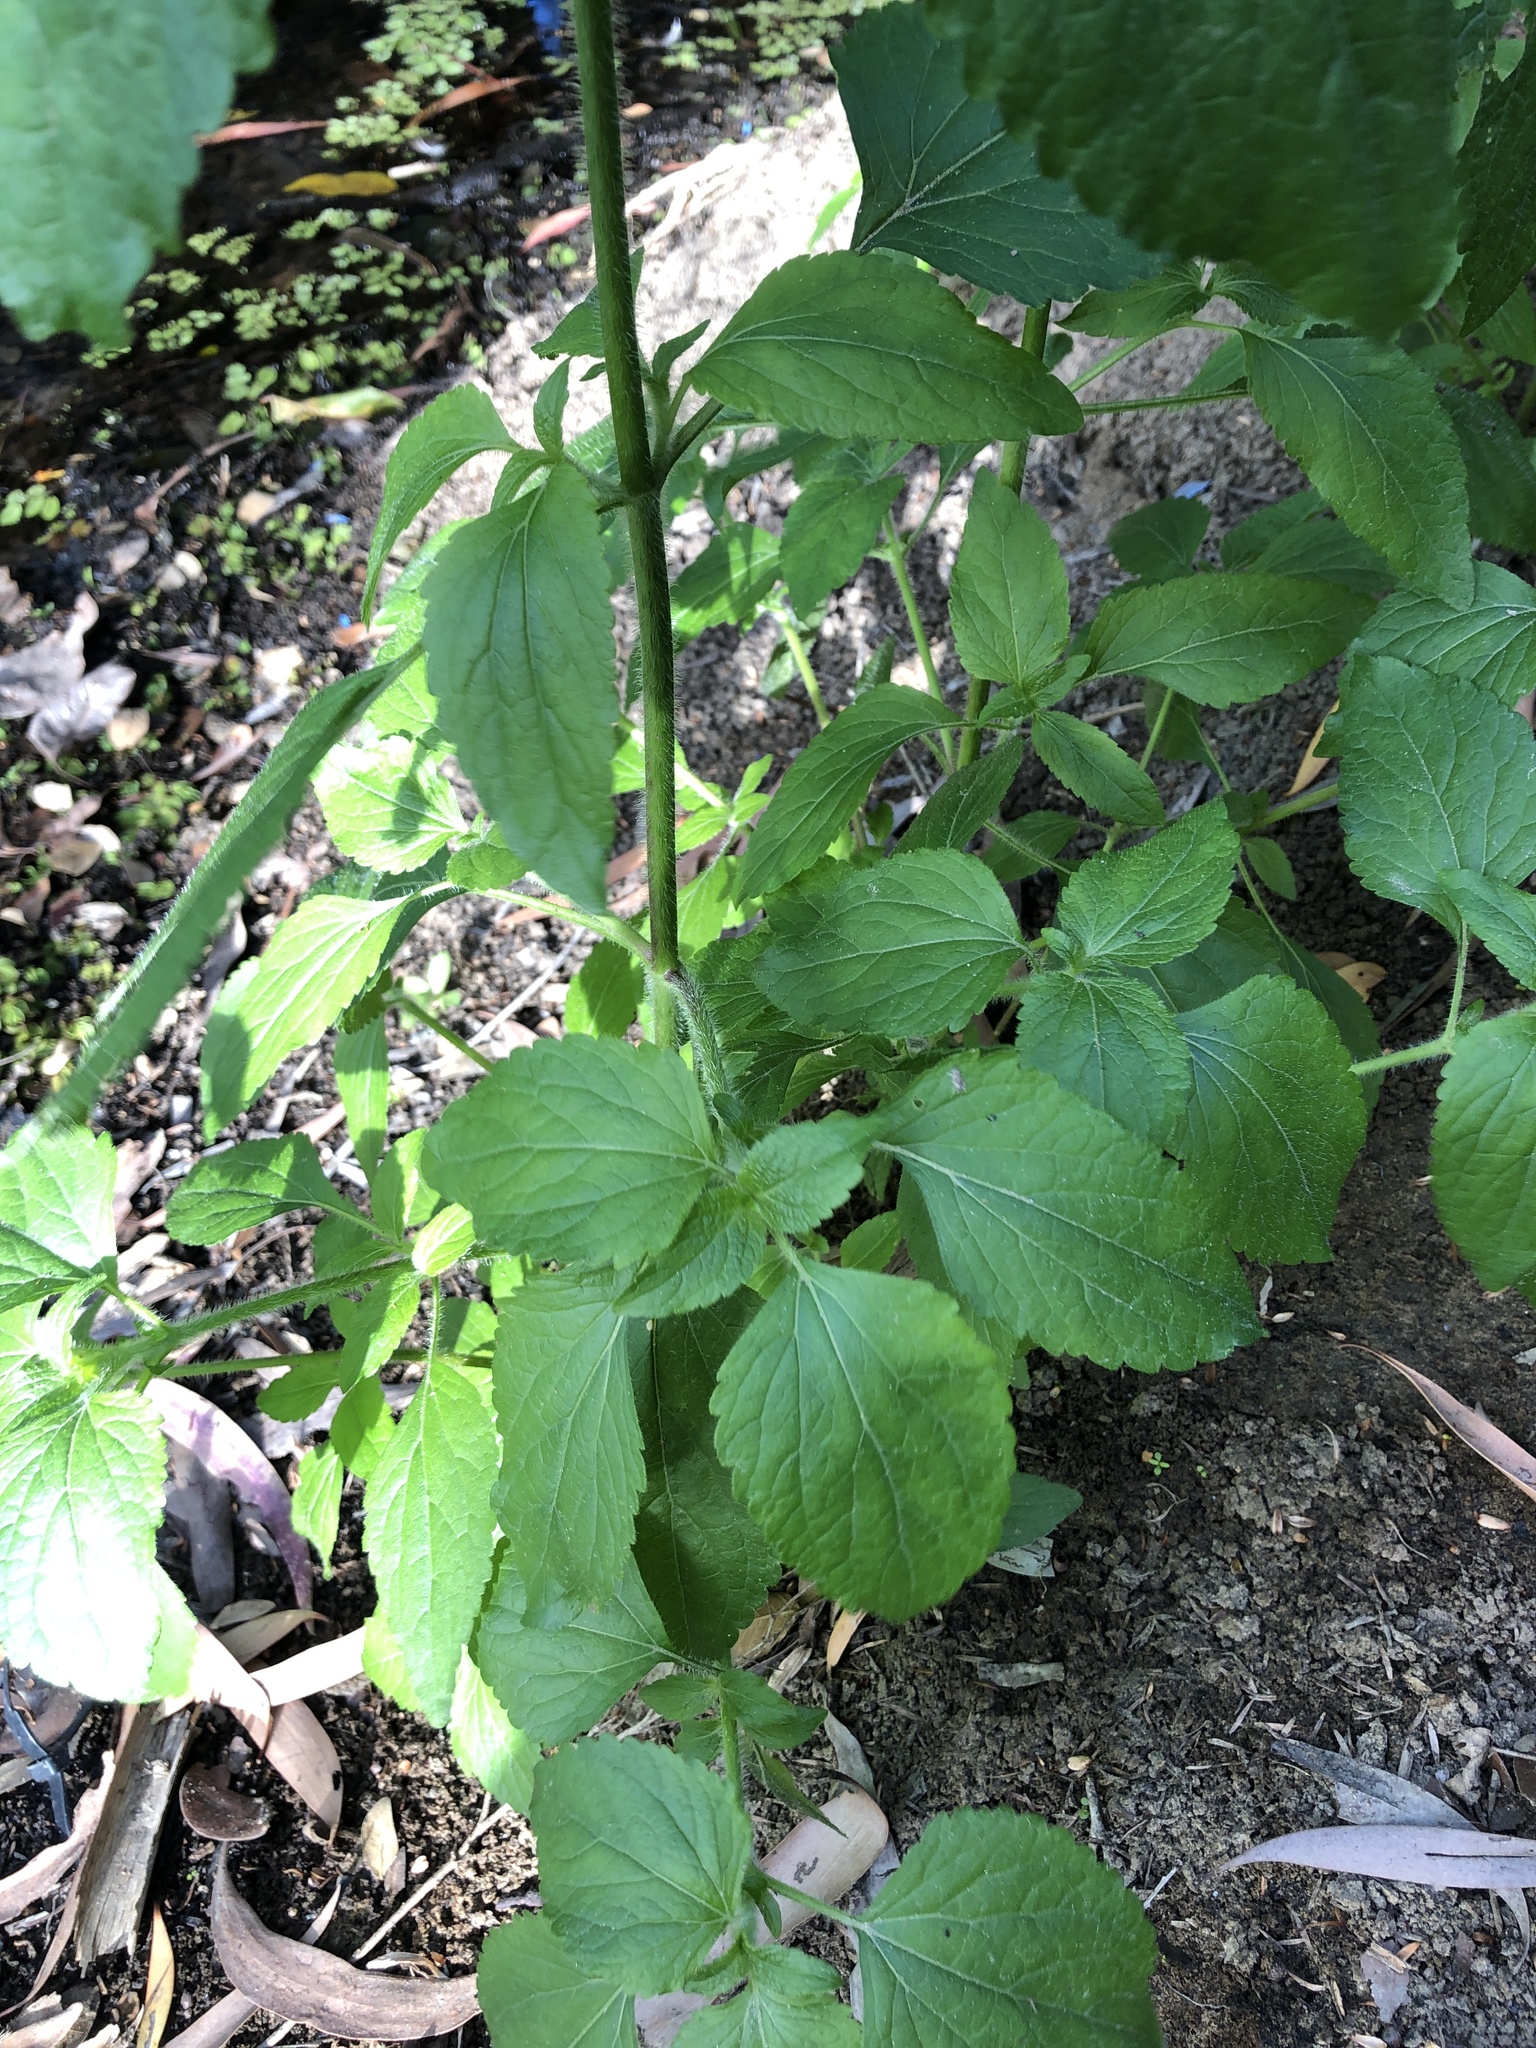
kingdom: Plantae
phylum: Tracheophyta
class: Magnoliopsida
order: Asterales
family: Asteraceae
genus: Ageratum
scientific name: Ageratum conyzoides
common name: Tropical whiteweed
